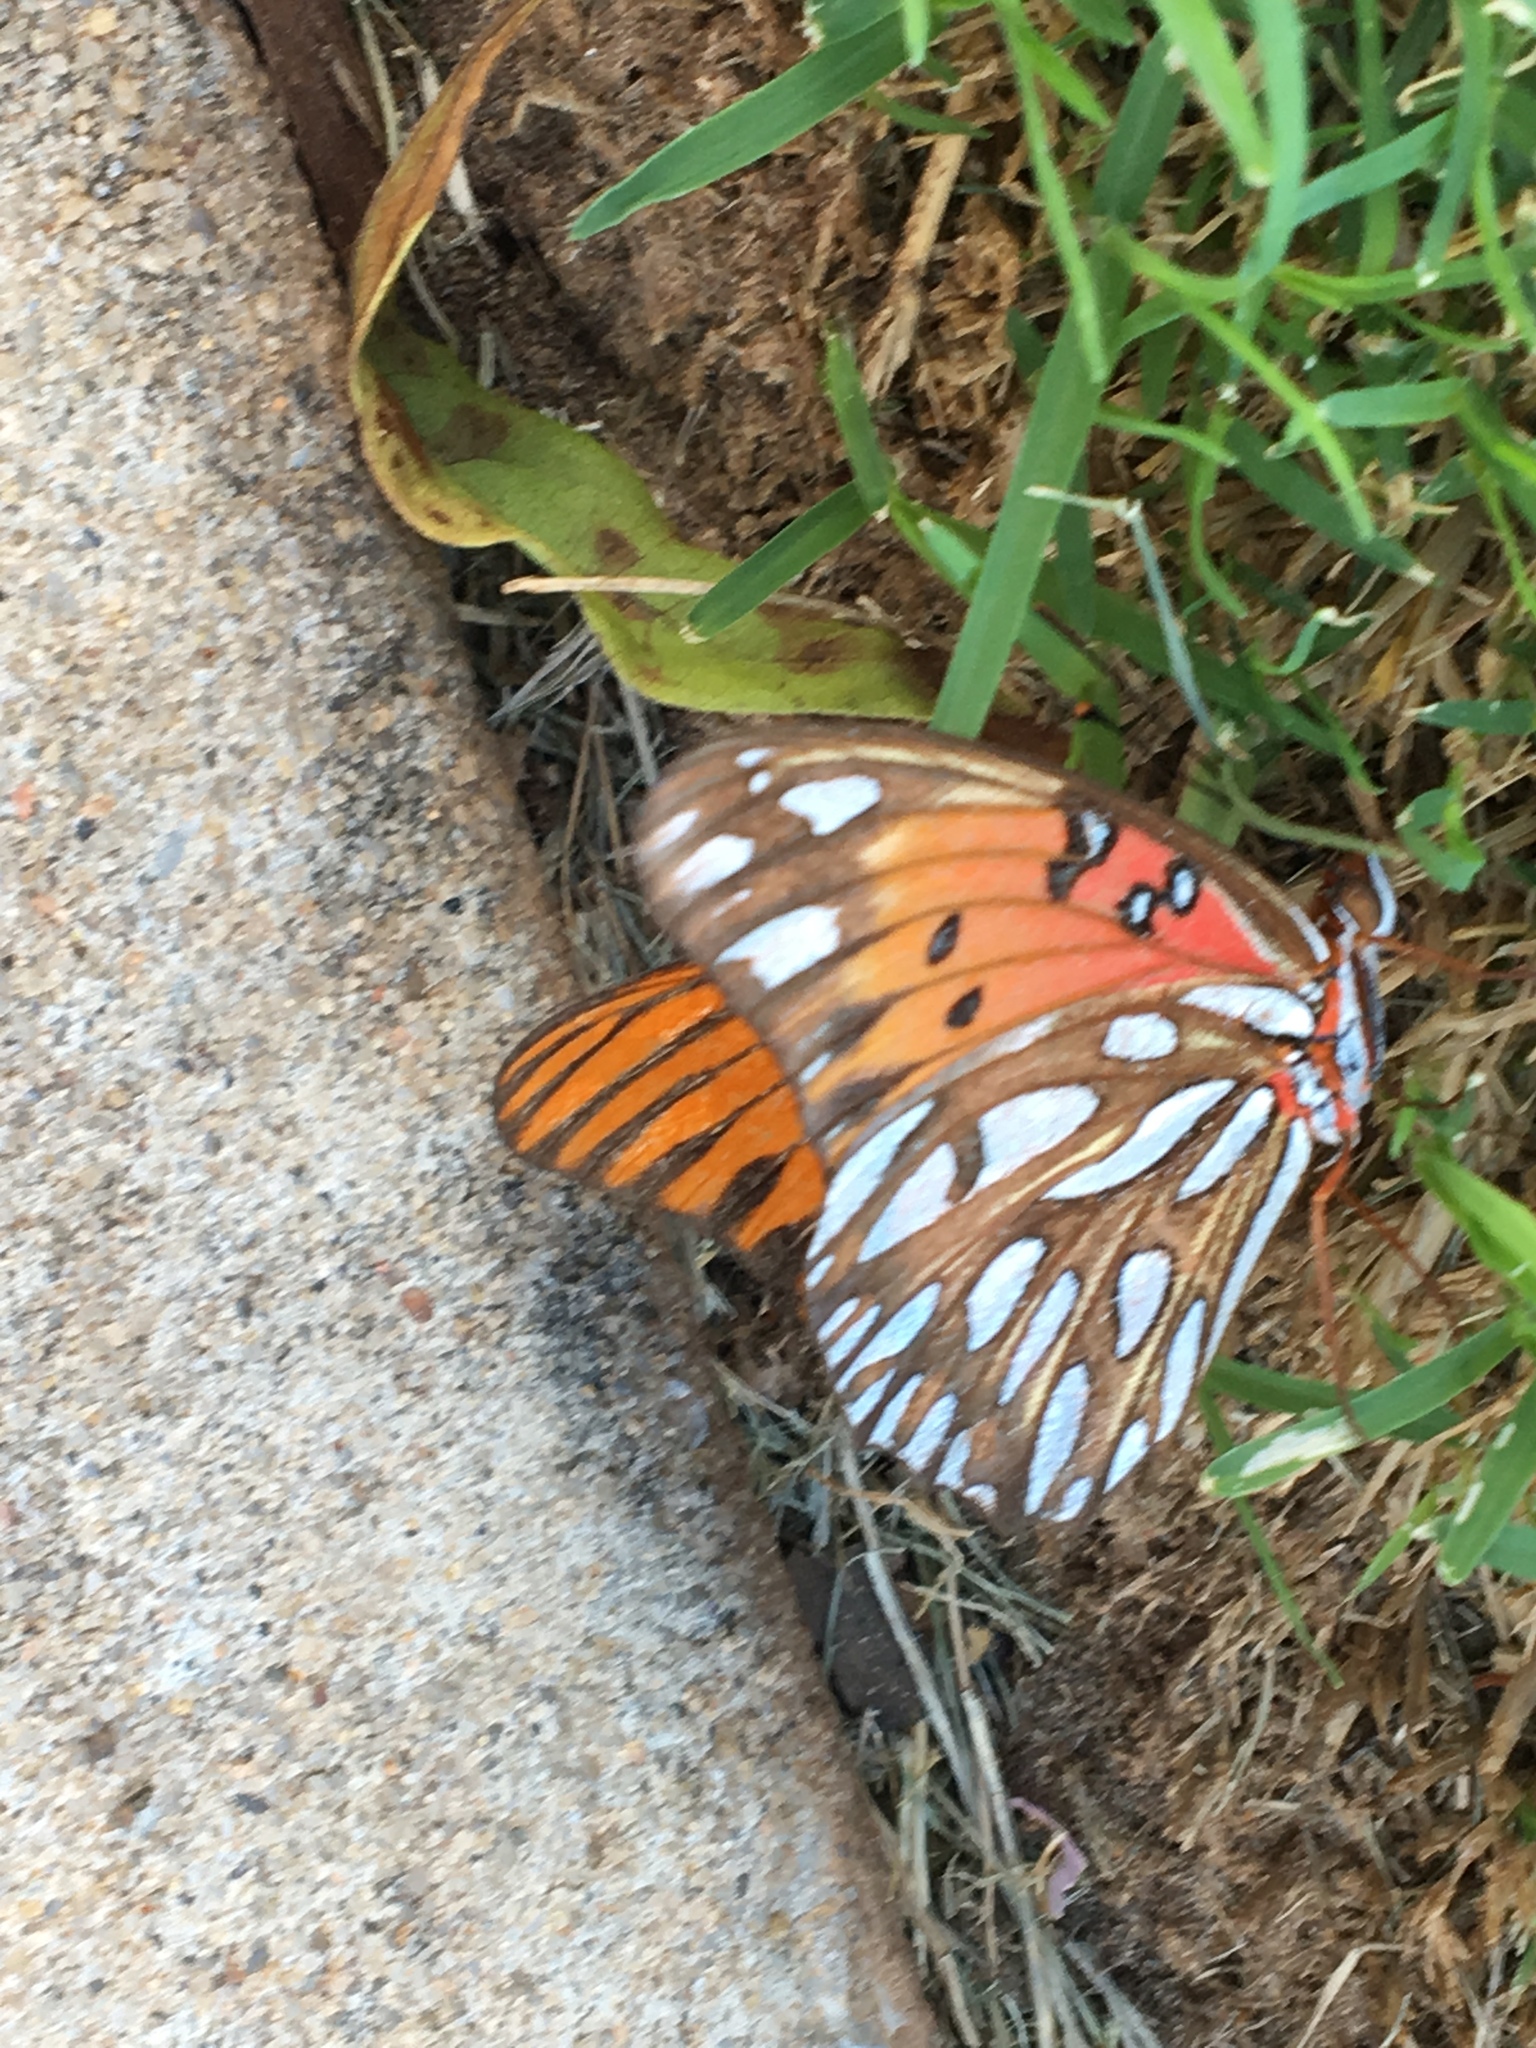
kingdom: Animalia
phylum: Arthropoda
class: Insecta
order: Lepidoptera
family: Nymphalidae
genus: Dione
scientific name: Dione vanillae
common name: Gulf fritillary
